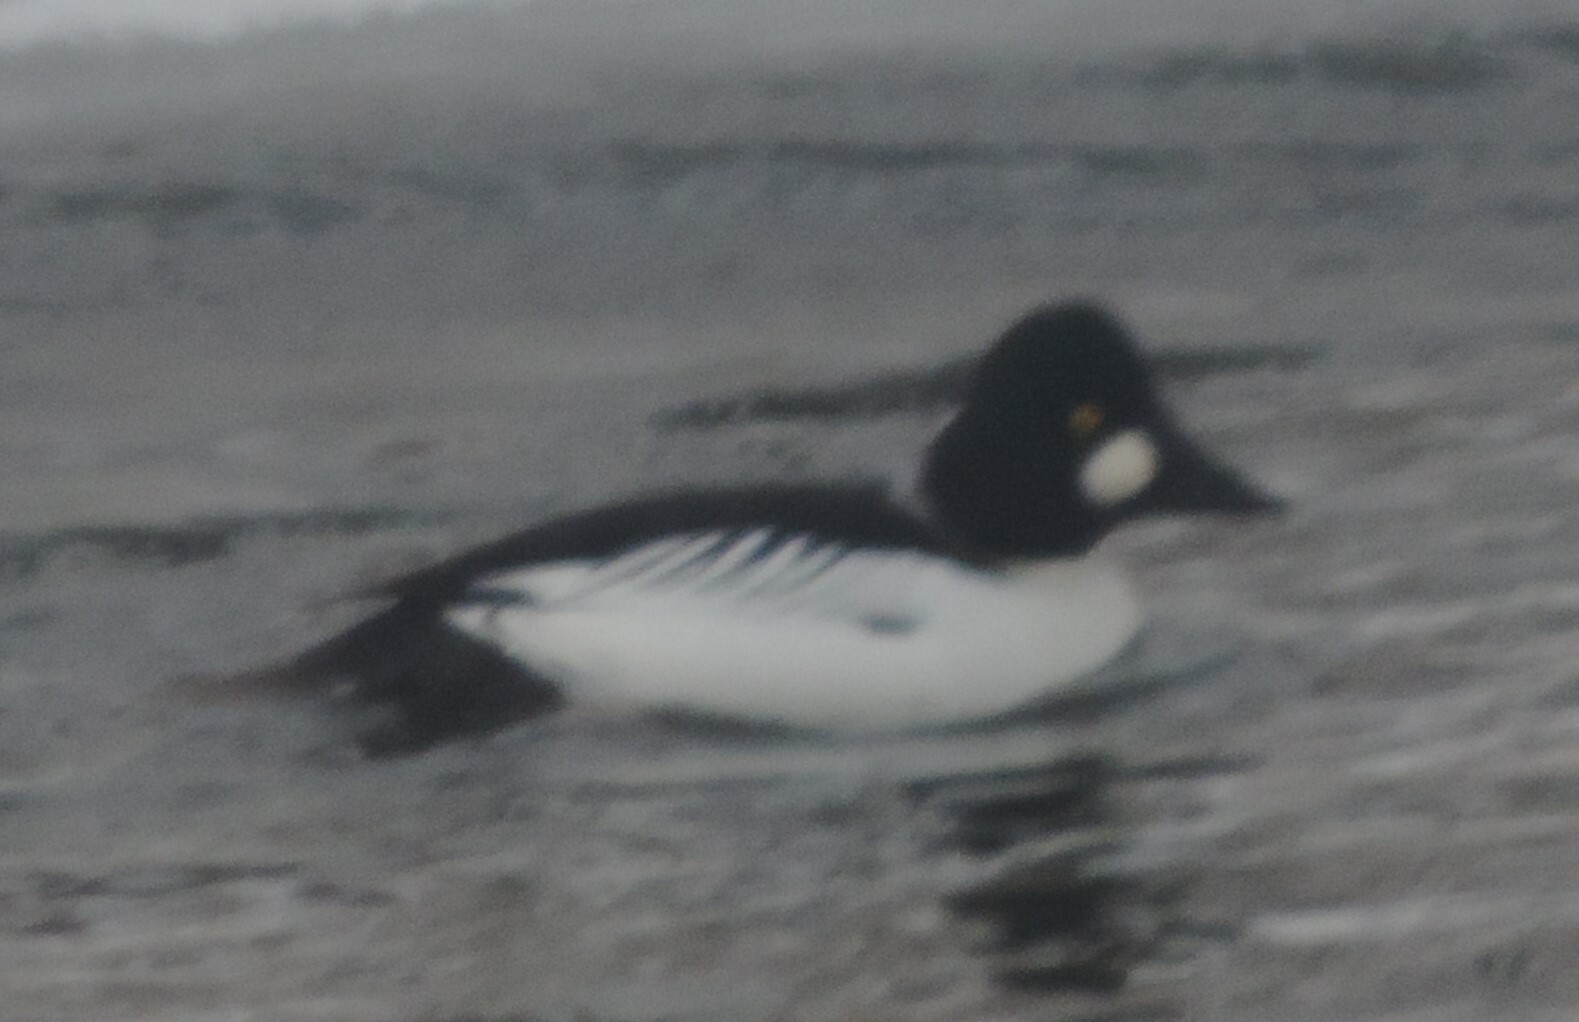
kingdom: Animalia
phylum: Chordata
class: Aves
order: Anseriformes
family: Anatidae
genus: Bucephala
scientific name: Bucephala clangula
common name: Common goldeneye
